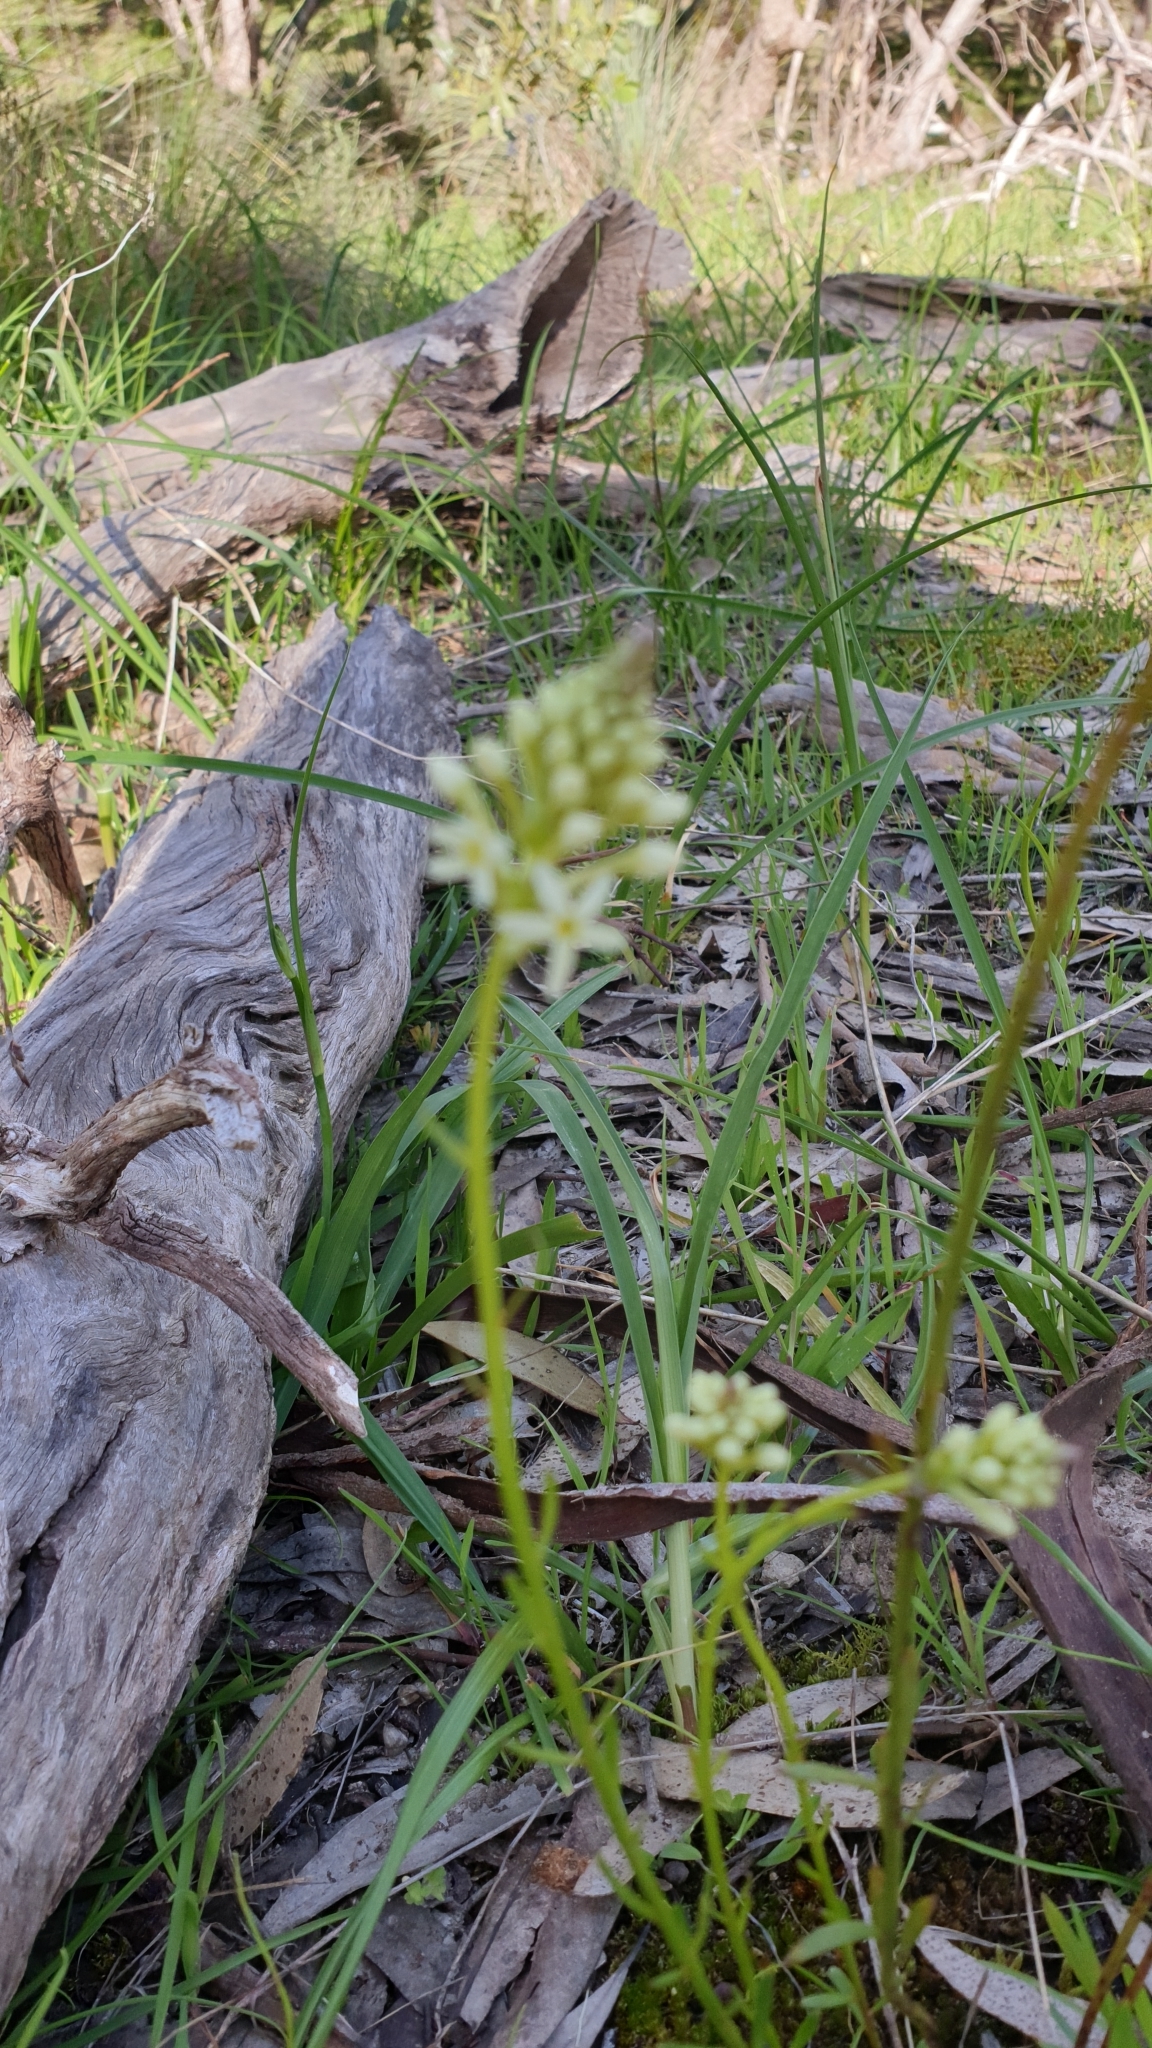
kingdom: Plantae
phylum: Tracheophyta
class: Magnoliopsida
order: Celastrales
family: Celastraceae
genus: Stackhousia
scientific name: Stackhousia subterranea
